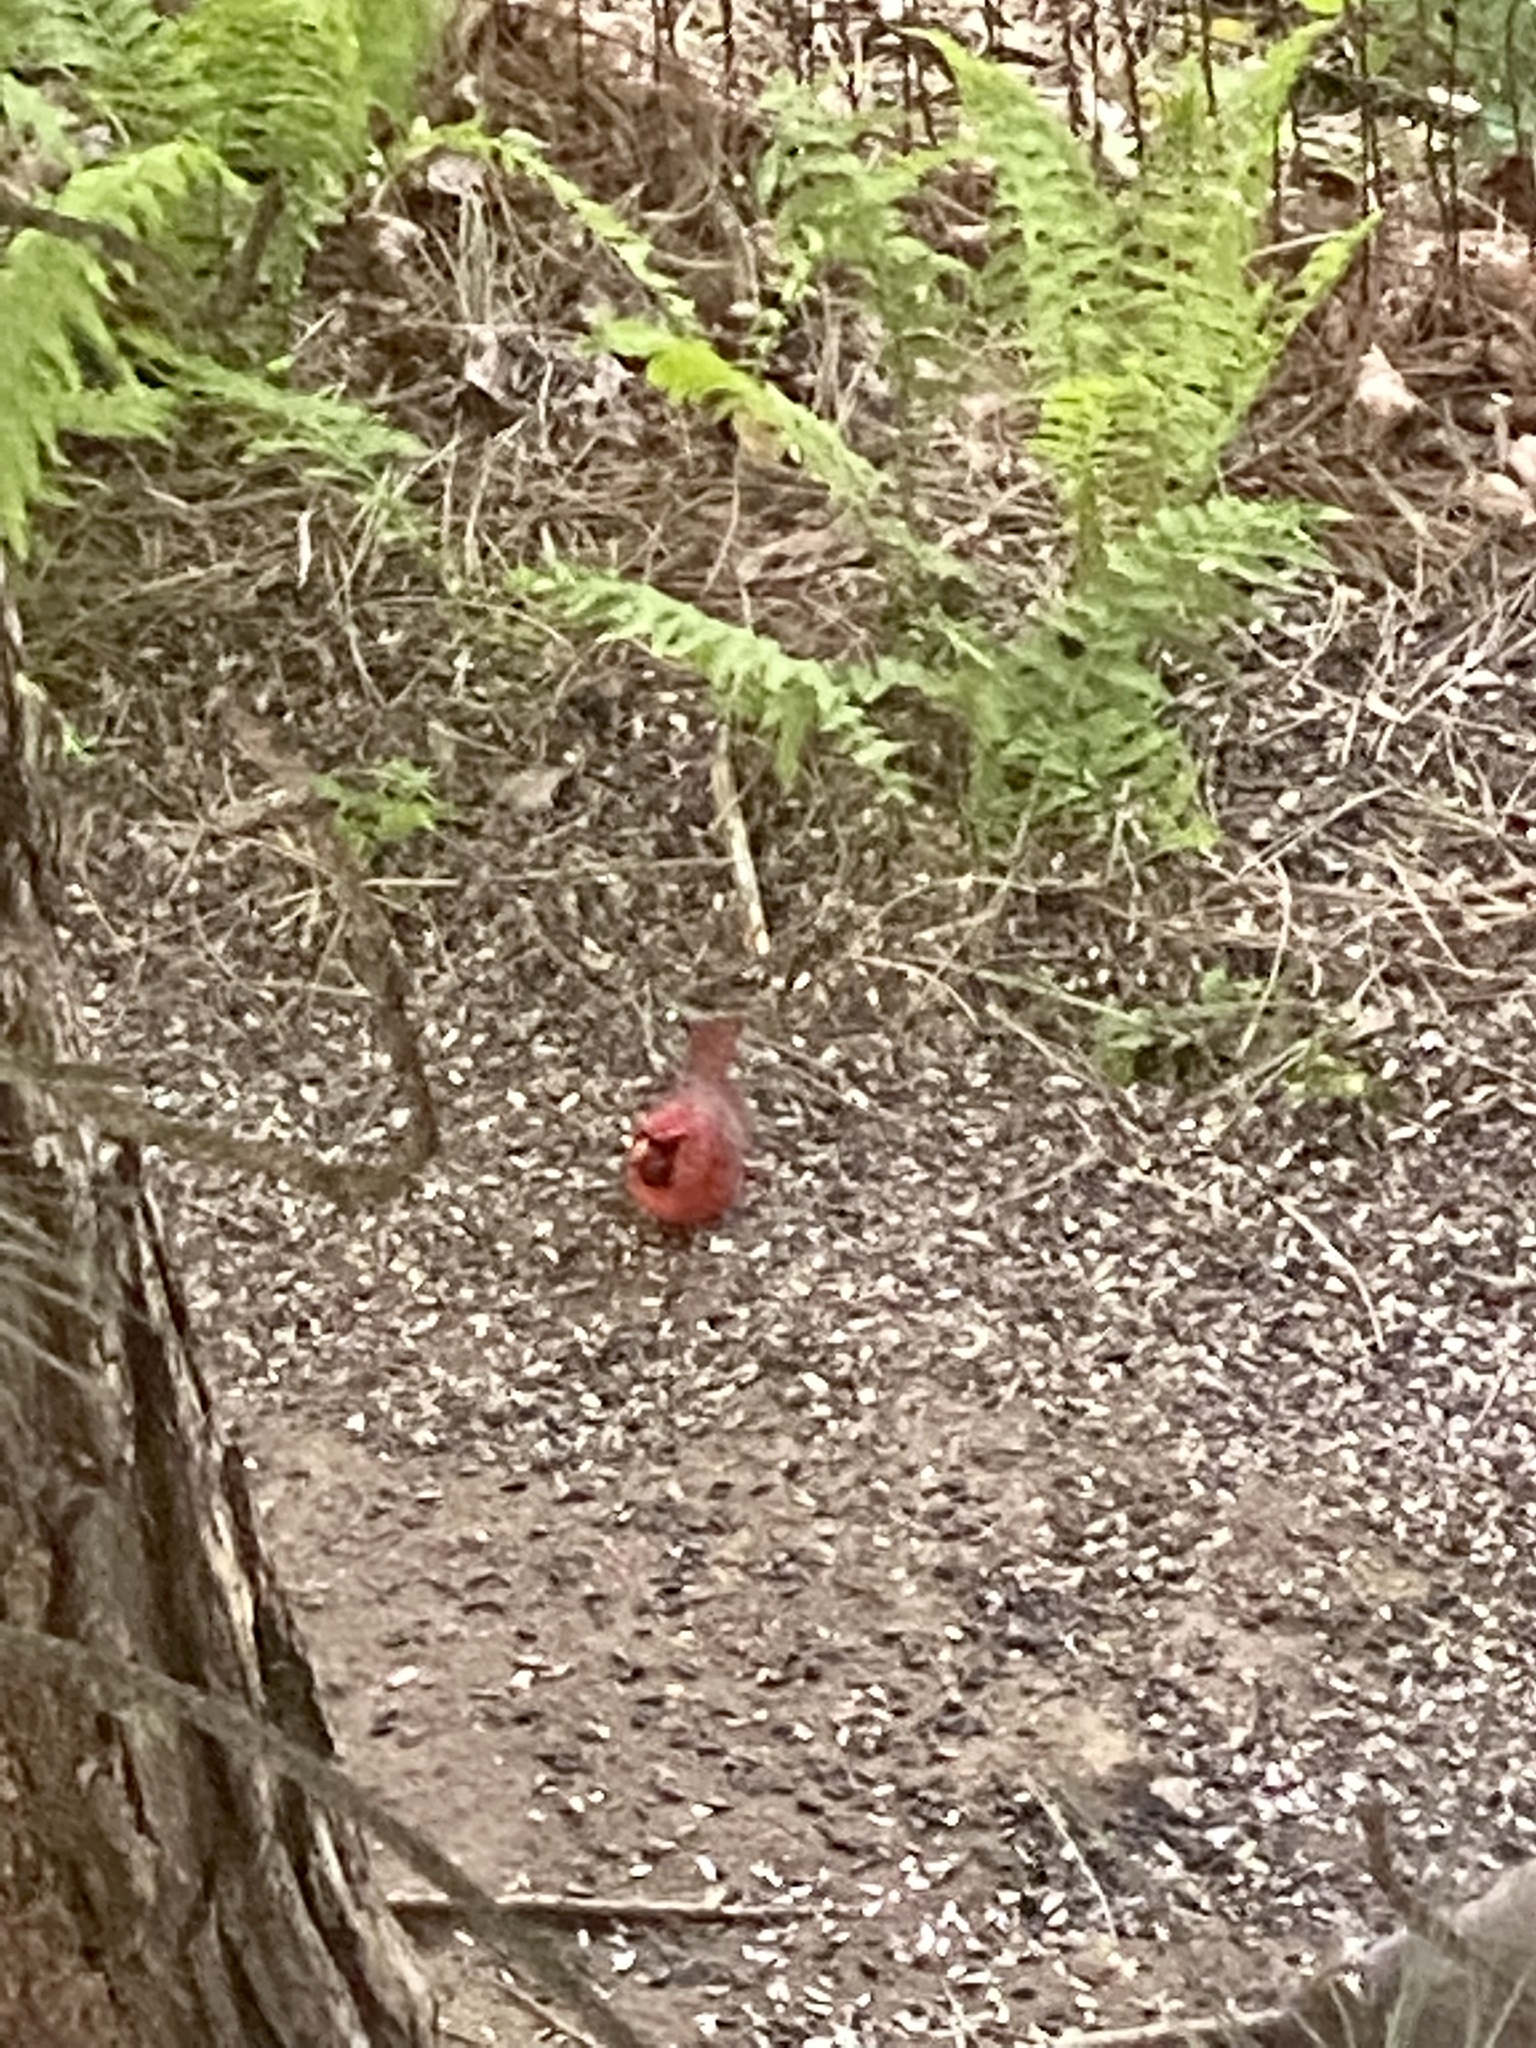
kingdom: Animalia
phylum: Chordata
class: Aves
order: Passeriformes
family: Cardinalidae
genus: Cardinalis
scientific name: Cardinalis cardinalis
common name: Northern cardinal
